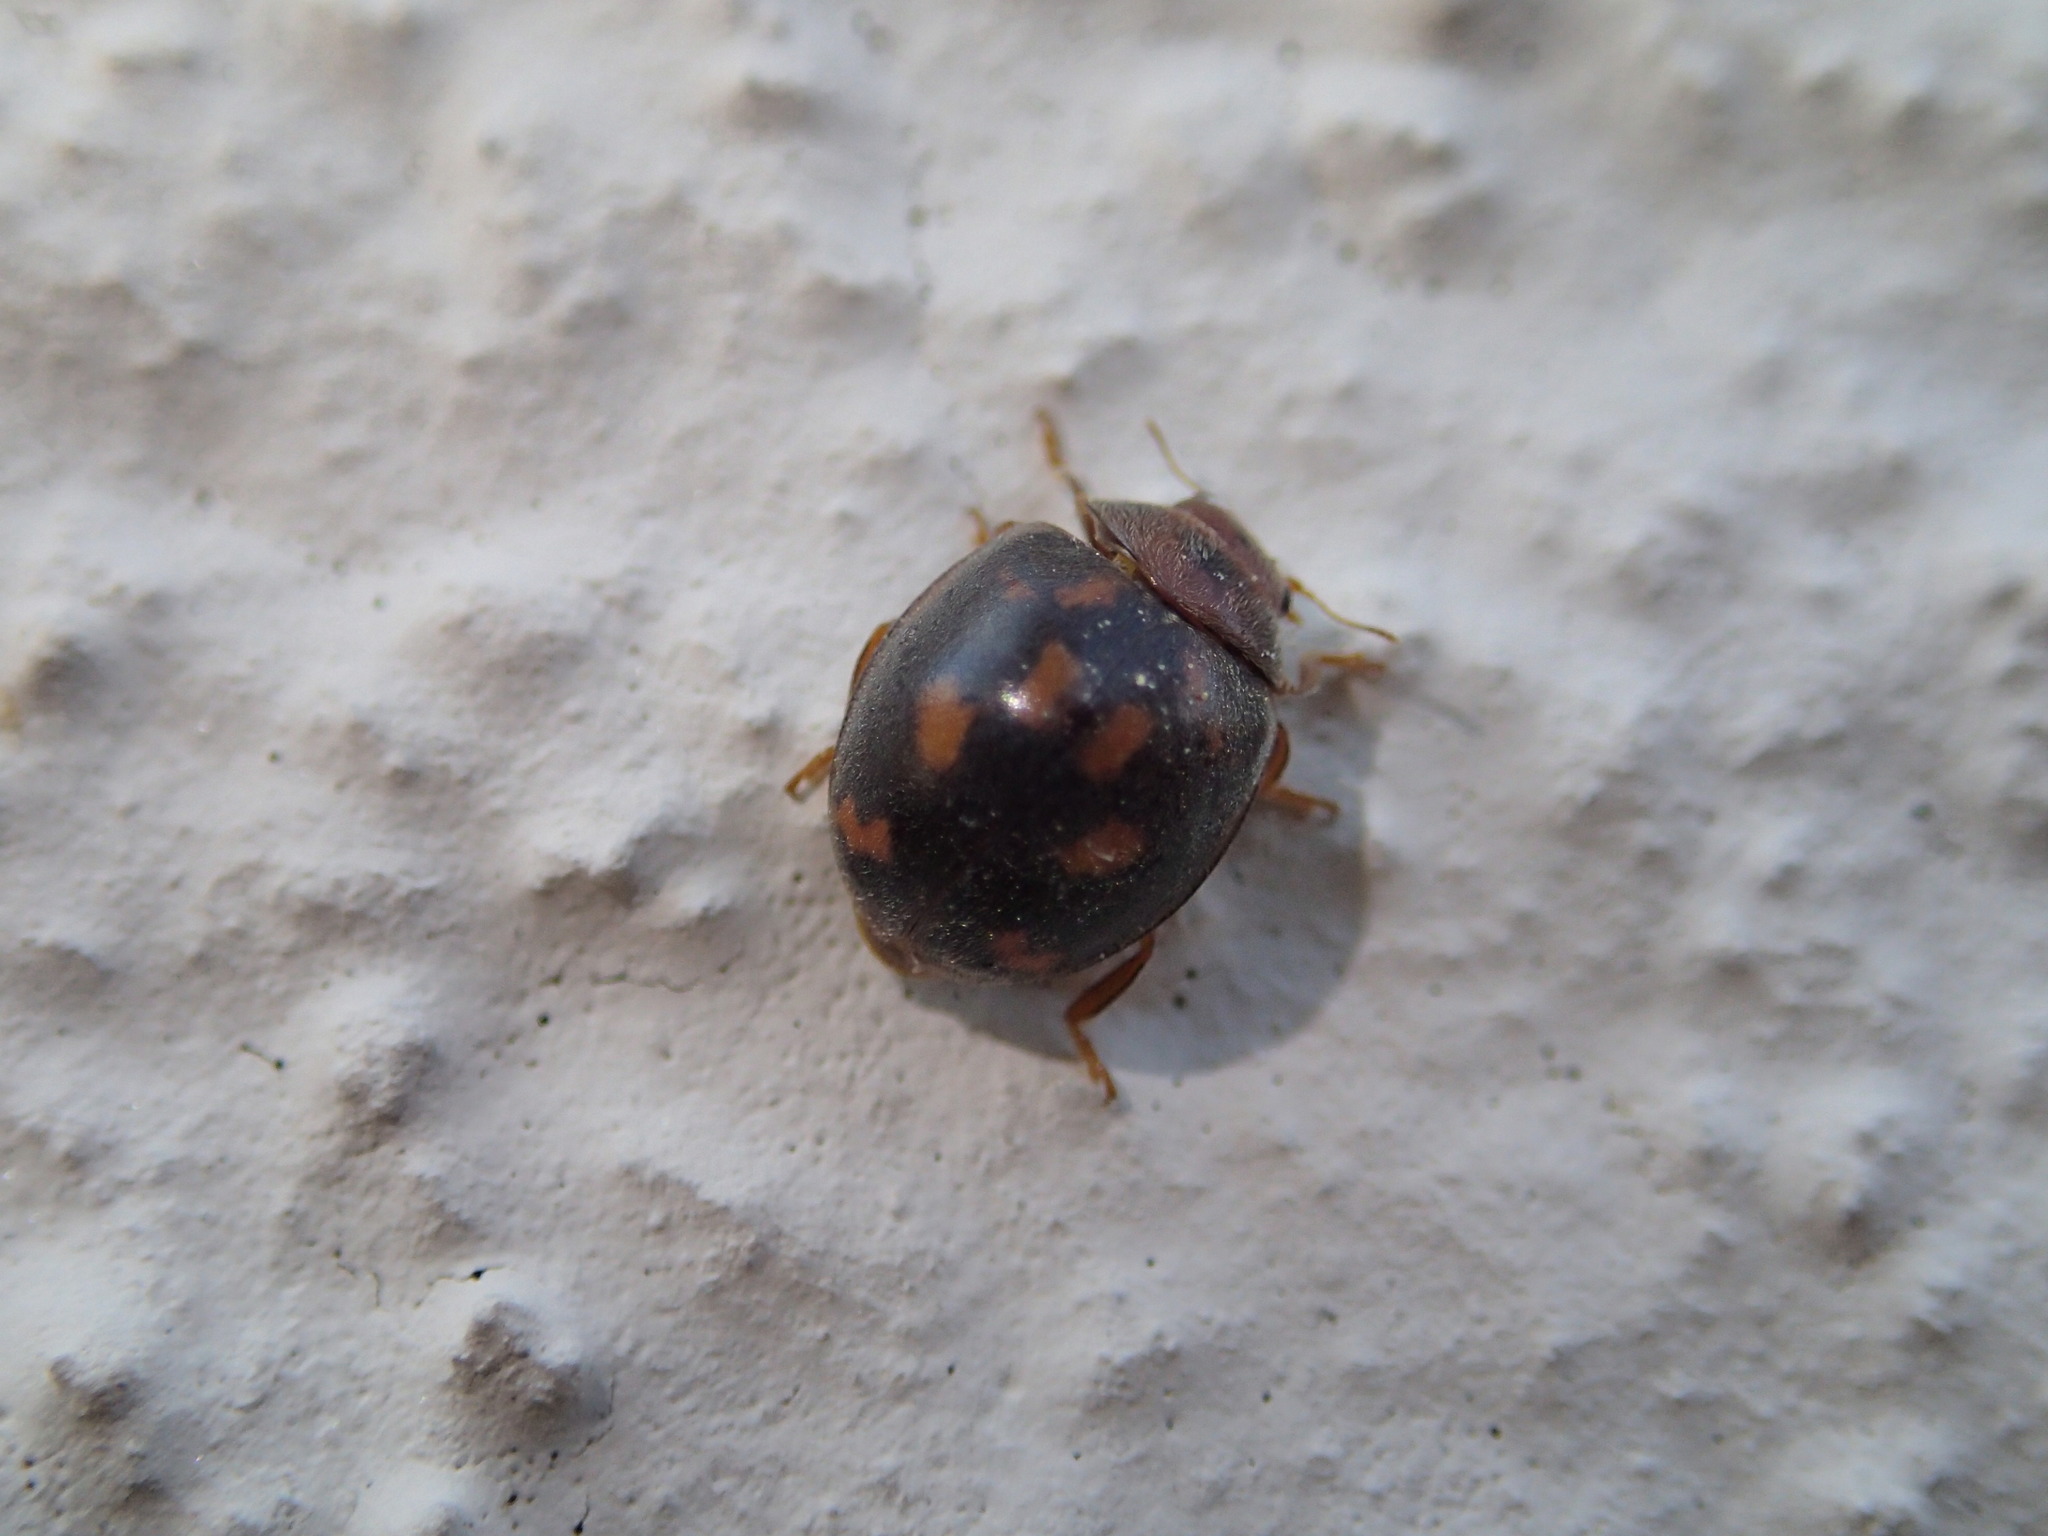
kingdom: Animalia
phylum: Arthropoda
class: Insecta
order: Coleoptera
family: Coccinellidae
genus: Subcoccinella
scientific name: Subcoccinella vigintiquatuorpunctata
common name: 24-spot ladybird
